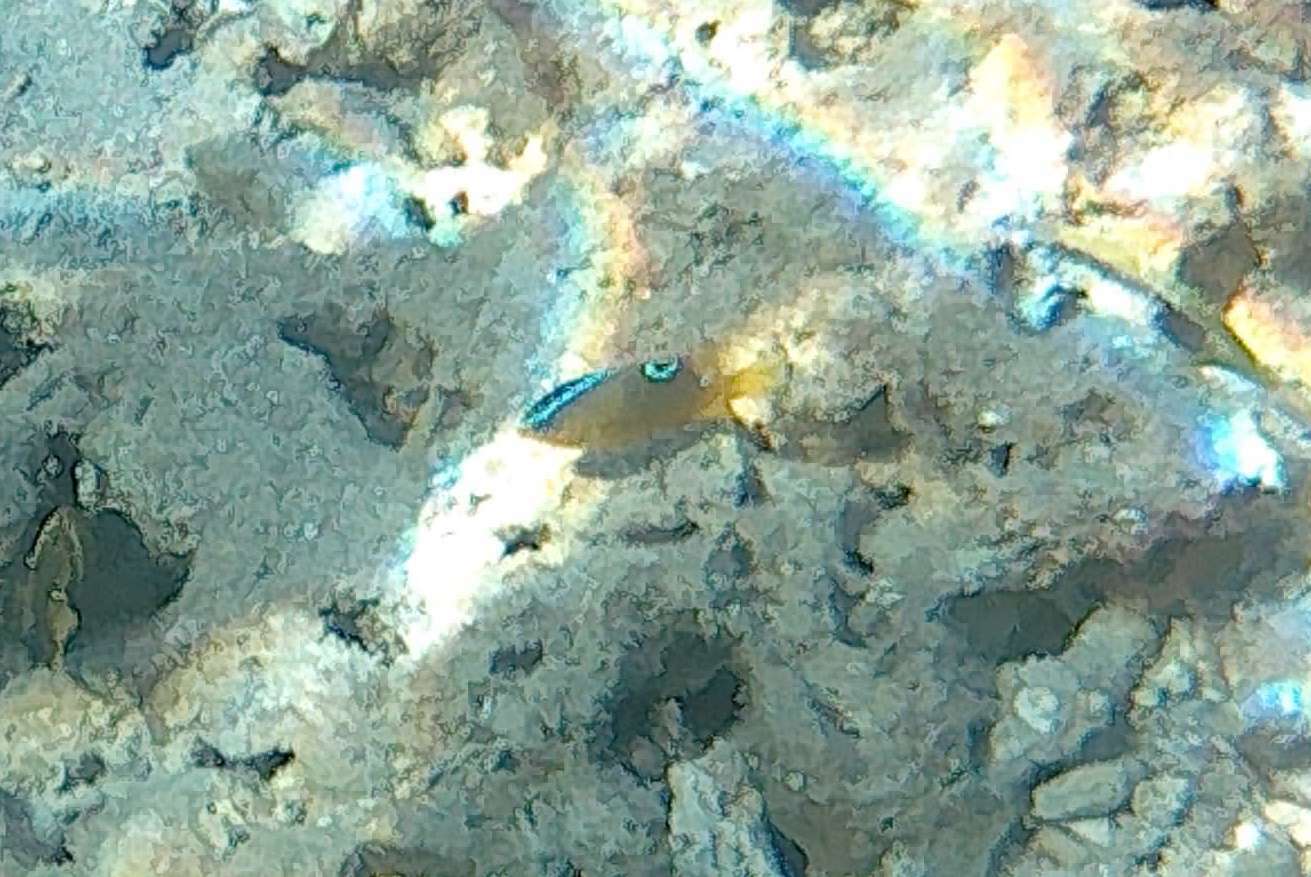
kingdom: Animalia
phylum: Chordata
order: Perciformes
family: Pomacentridae
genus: Chrysiptera
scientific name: Chrysiptera unimaculata
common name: Onespot demoiselle
